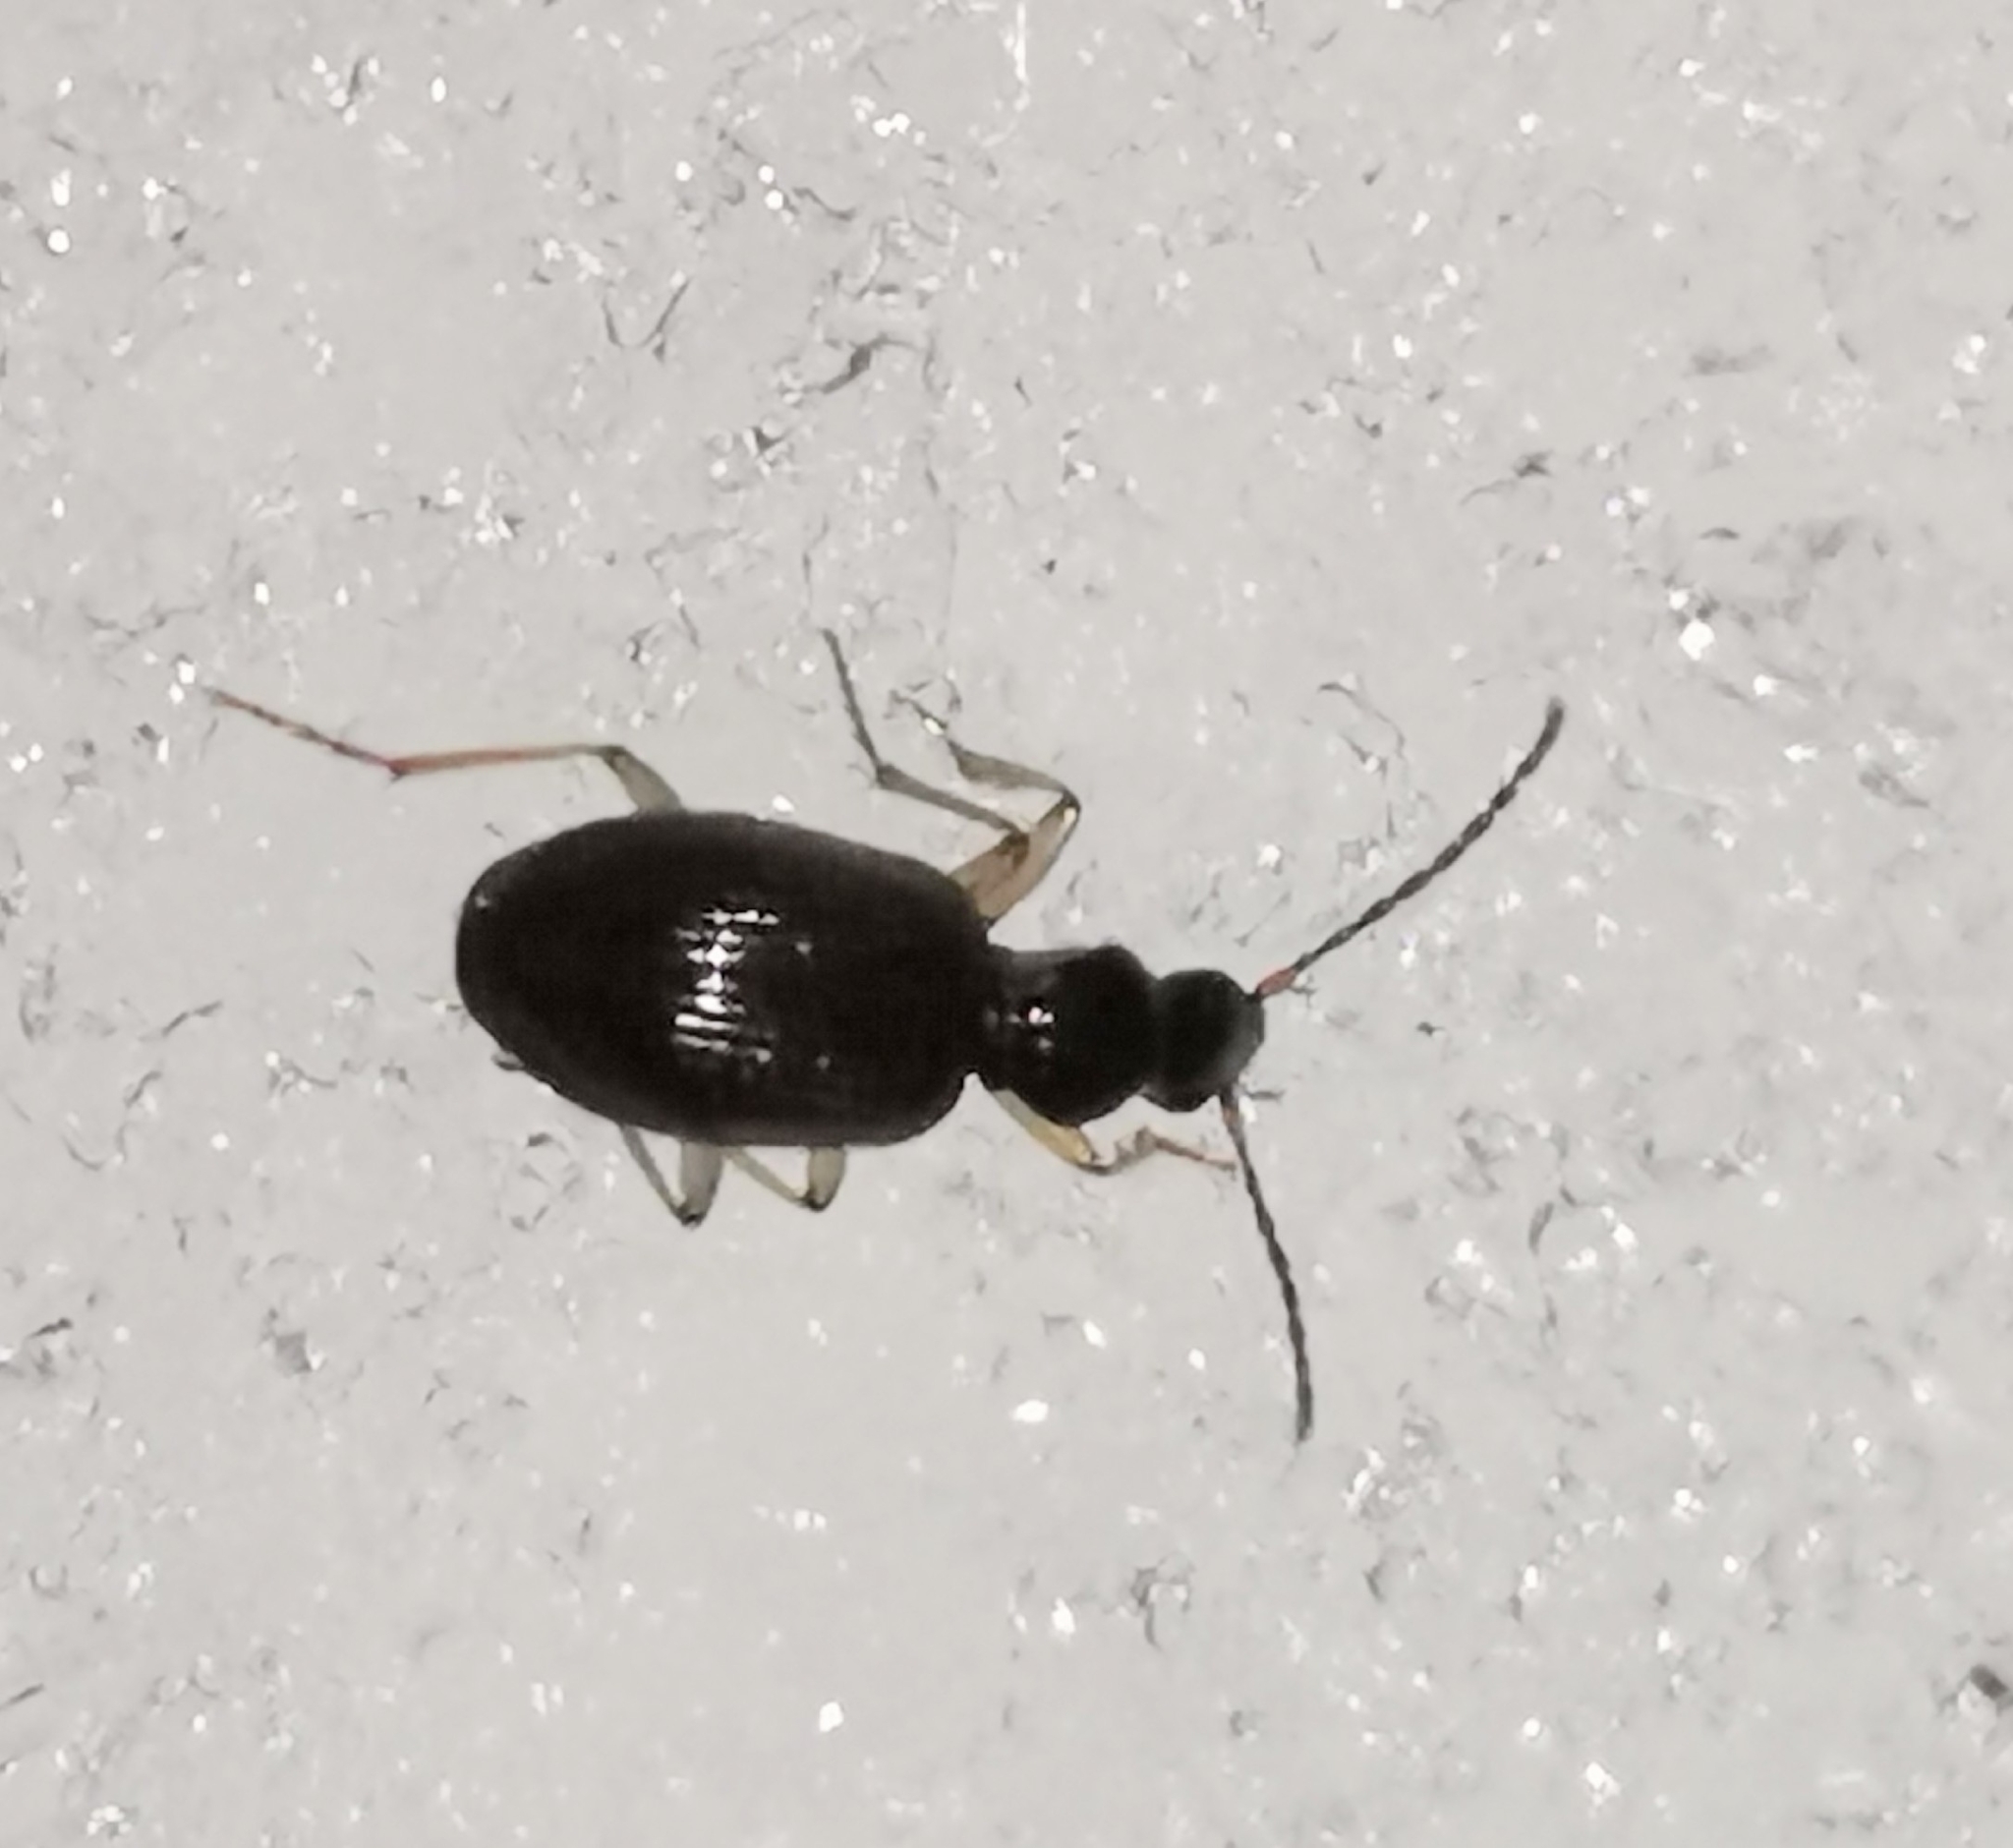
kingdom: Animalia
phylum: Arthropoda
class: Insecta
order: Coleoptera
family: Carabidae
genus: Oxypselaphus
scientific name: Oxypselaphus obscurus
